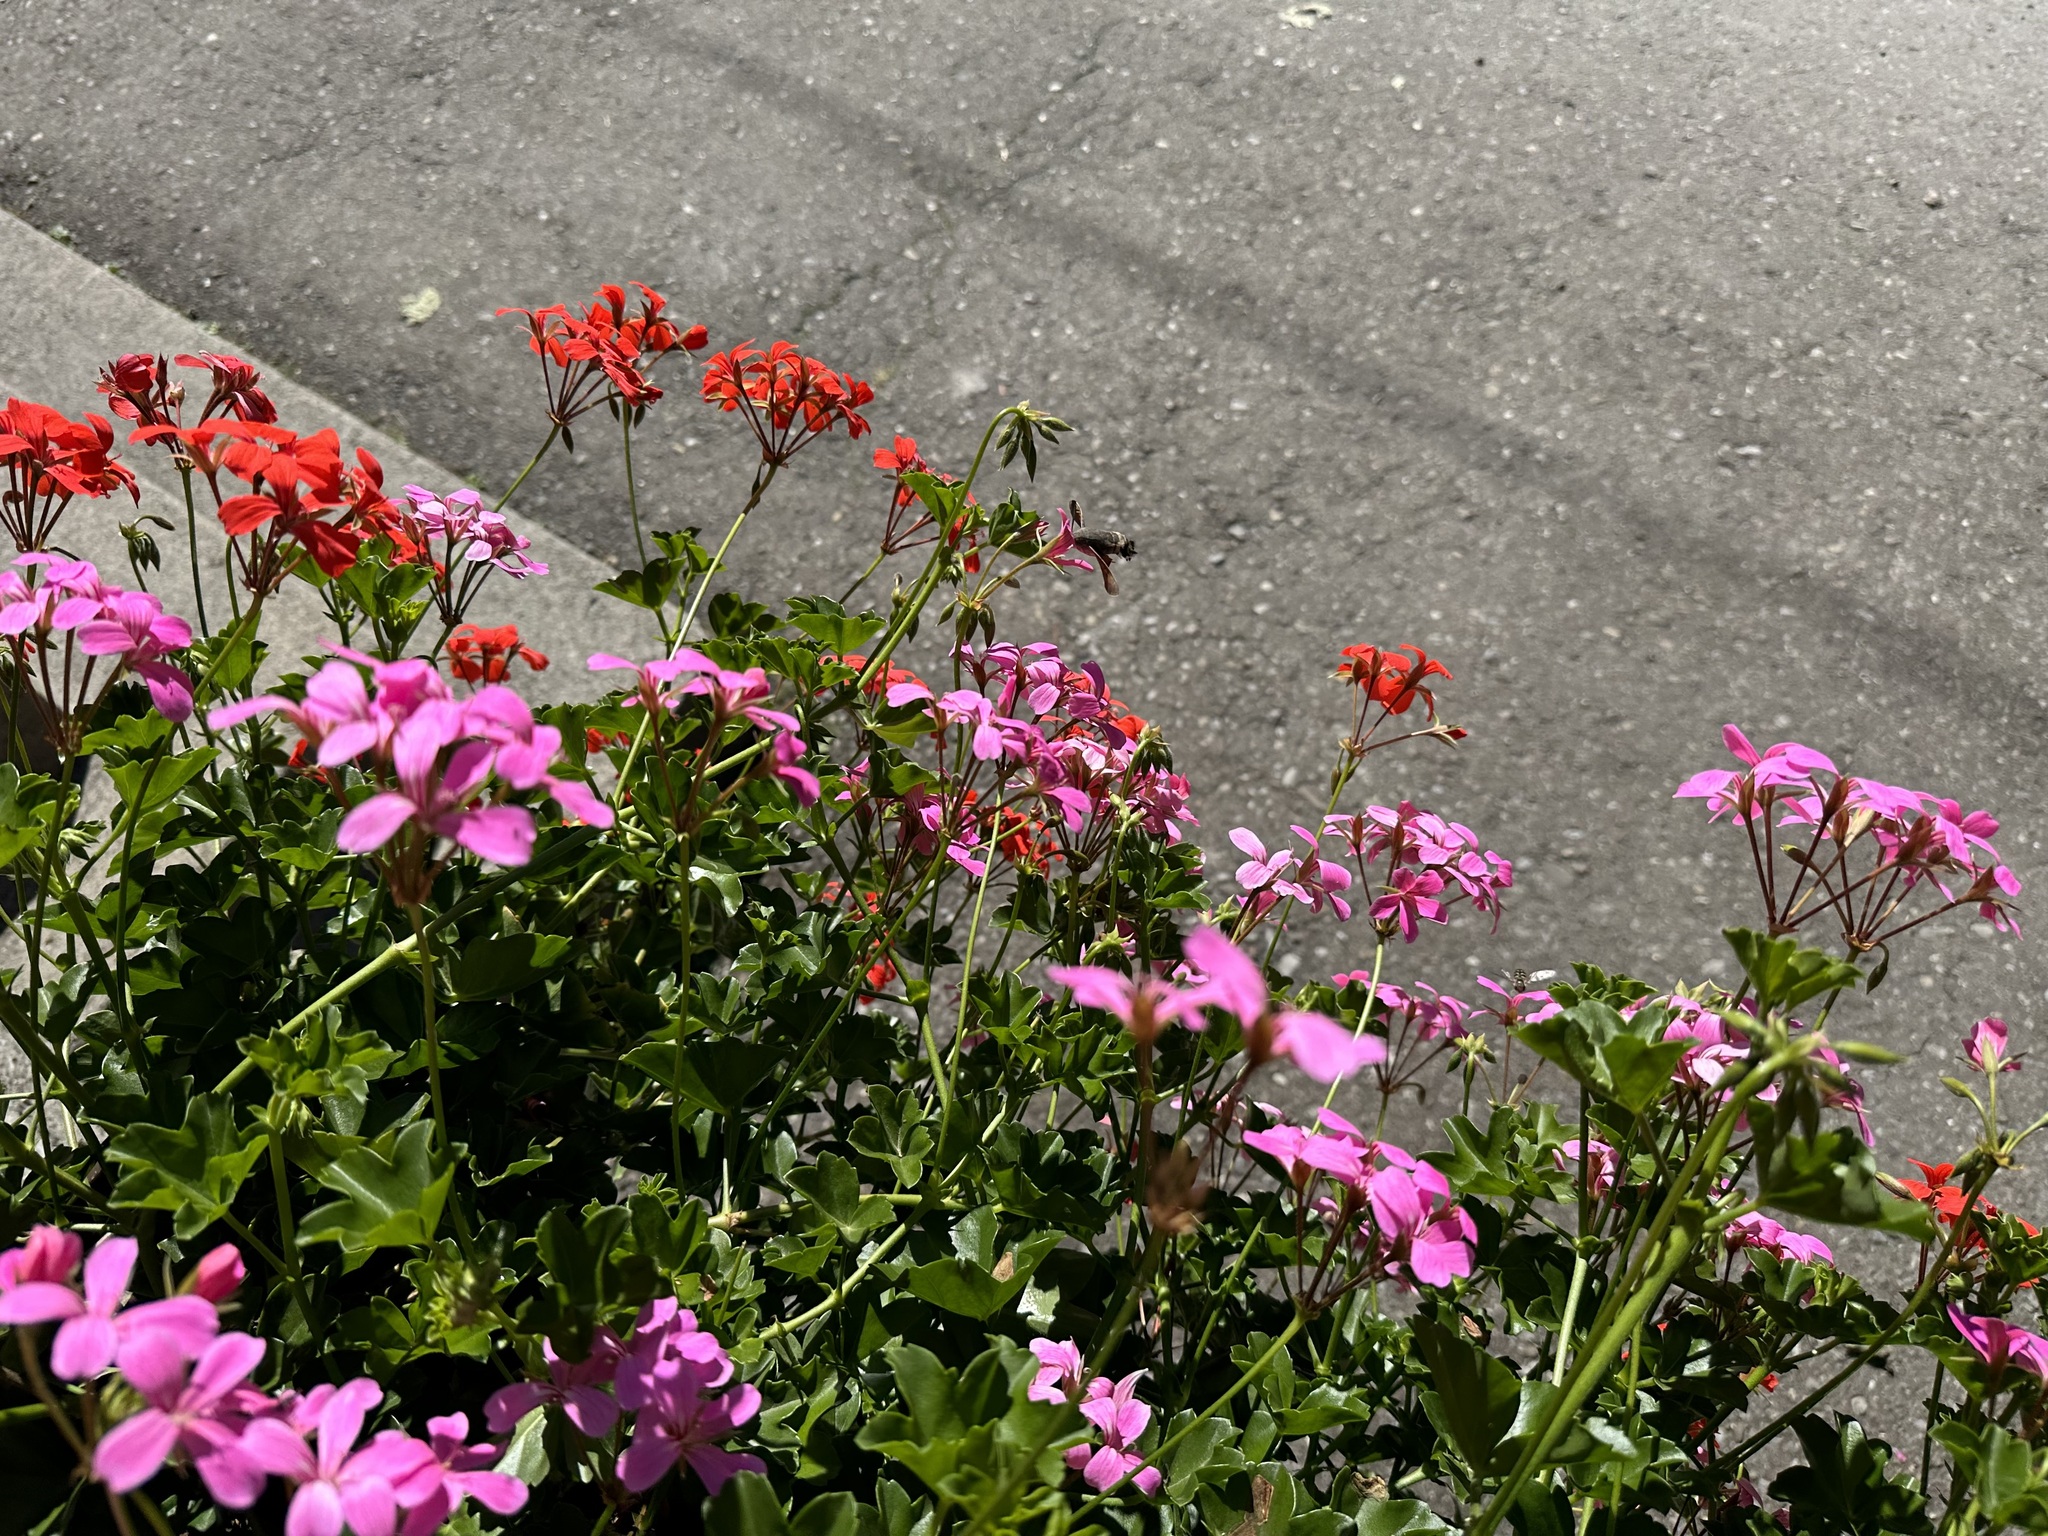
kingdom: Animalia
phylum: Arthropoda
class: Insecta
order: Lepidoptera
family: Sphingidae
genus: Macroglossum
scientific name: Macroglossum stellatarum
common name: Humming-bird hawk-moth
